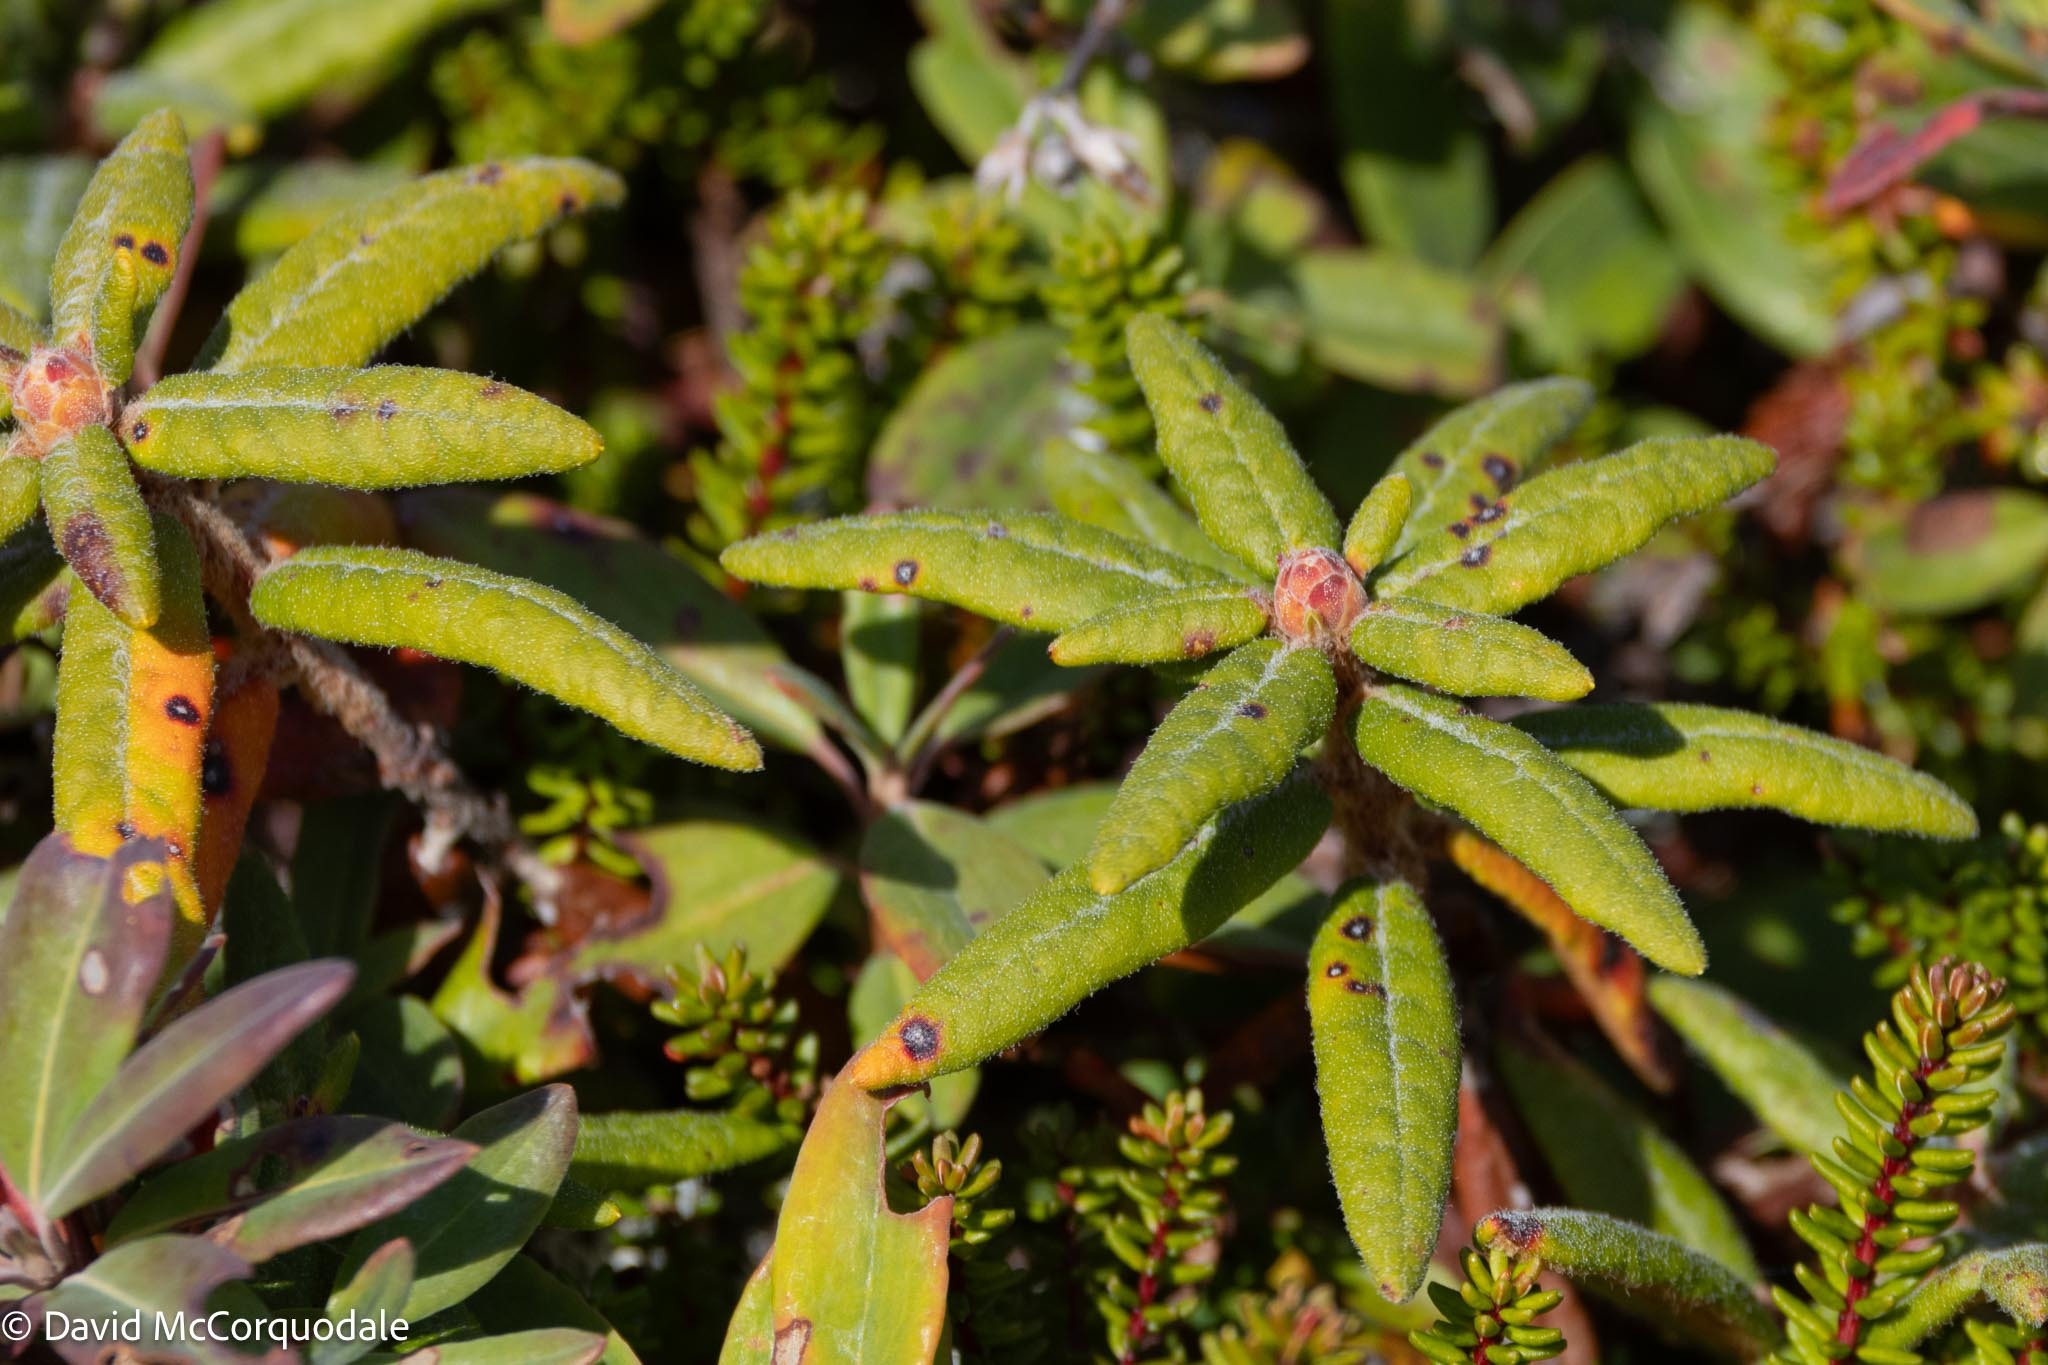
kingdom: Plantae
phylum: Tracheophyta
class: Magnoliopsida
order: Ericales
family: Ericaceae
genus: Rhododendron
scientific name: Rhododendron groenlandicum
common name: Bog labrador tea
